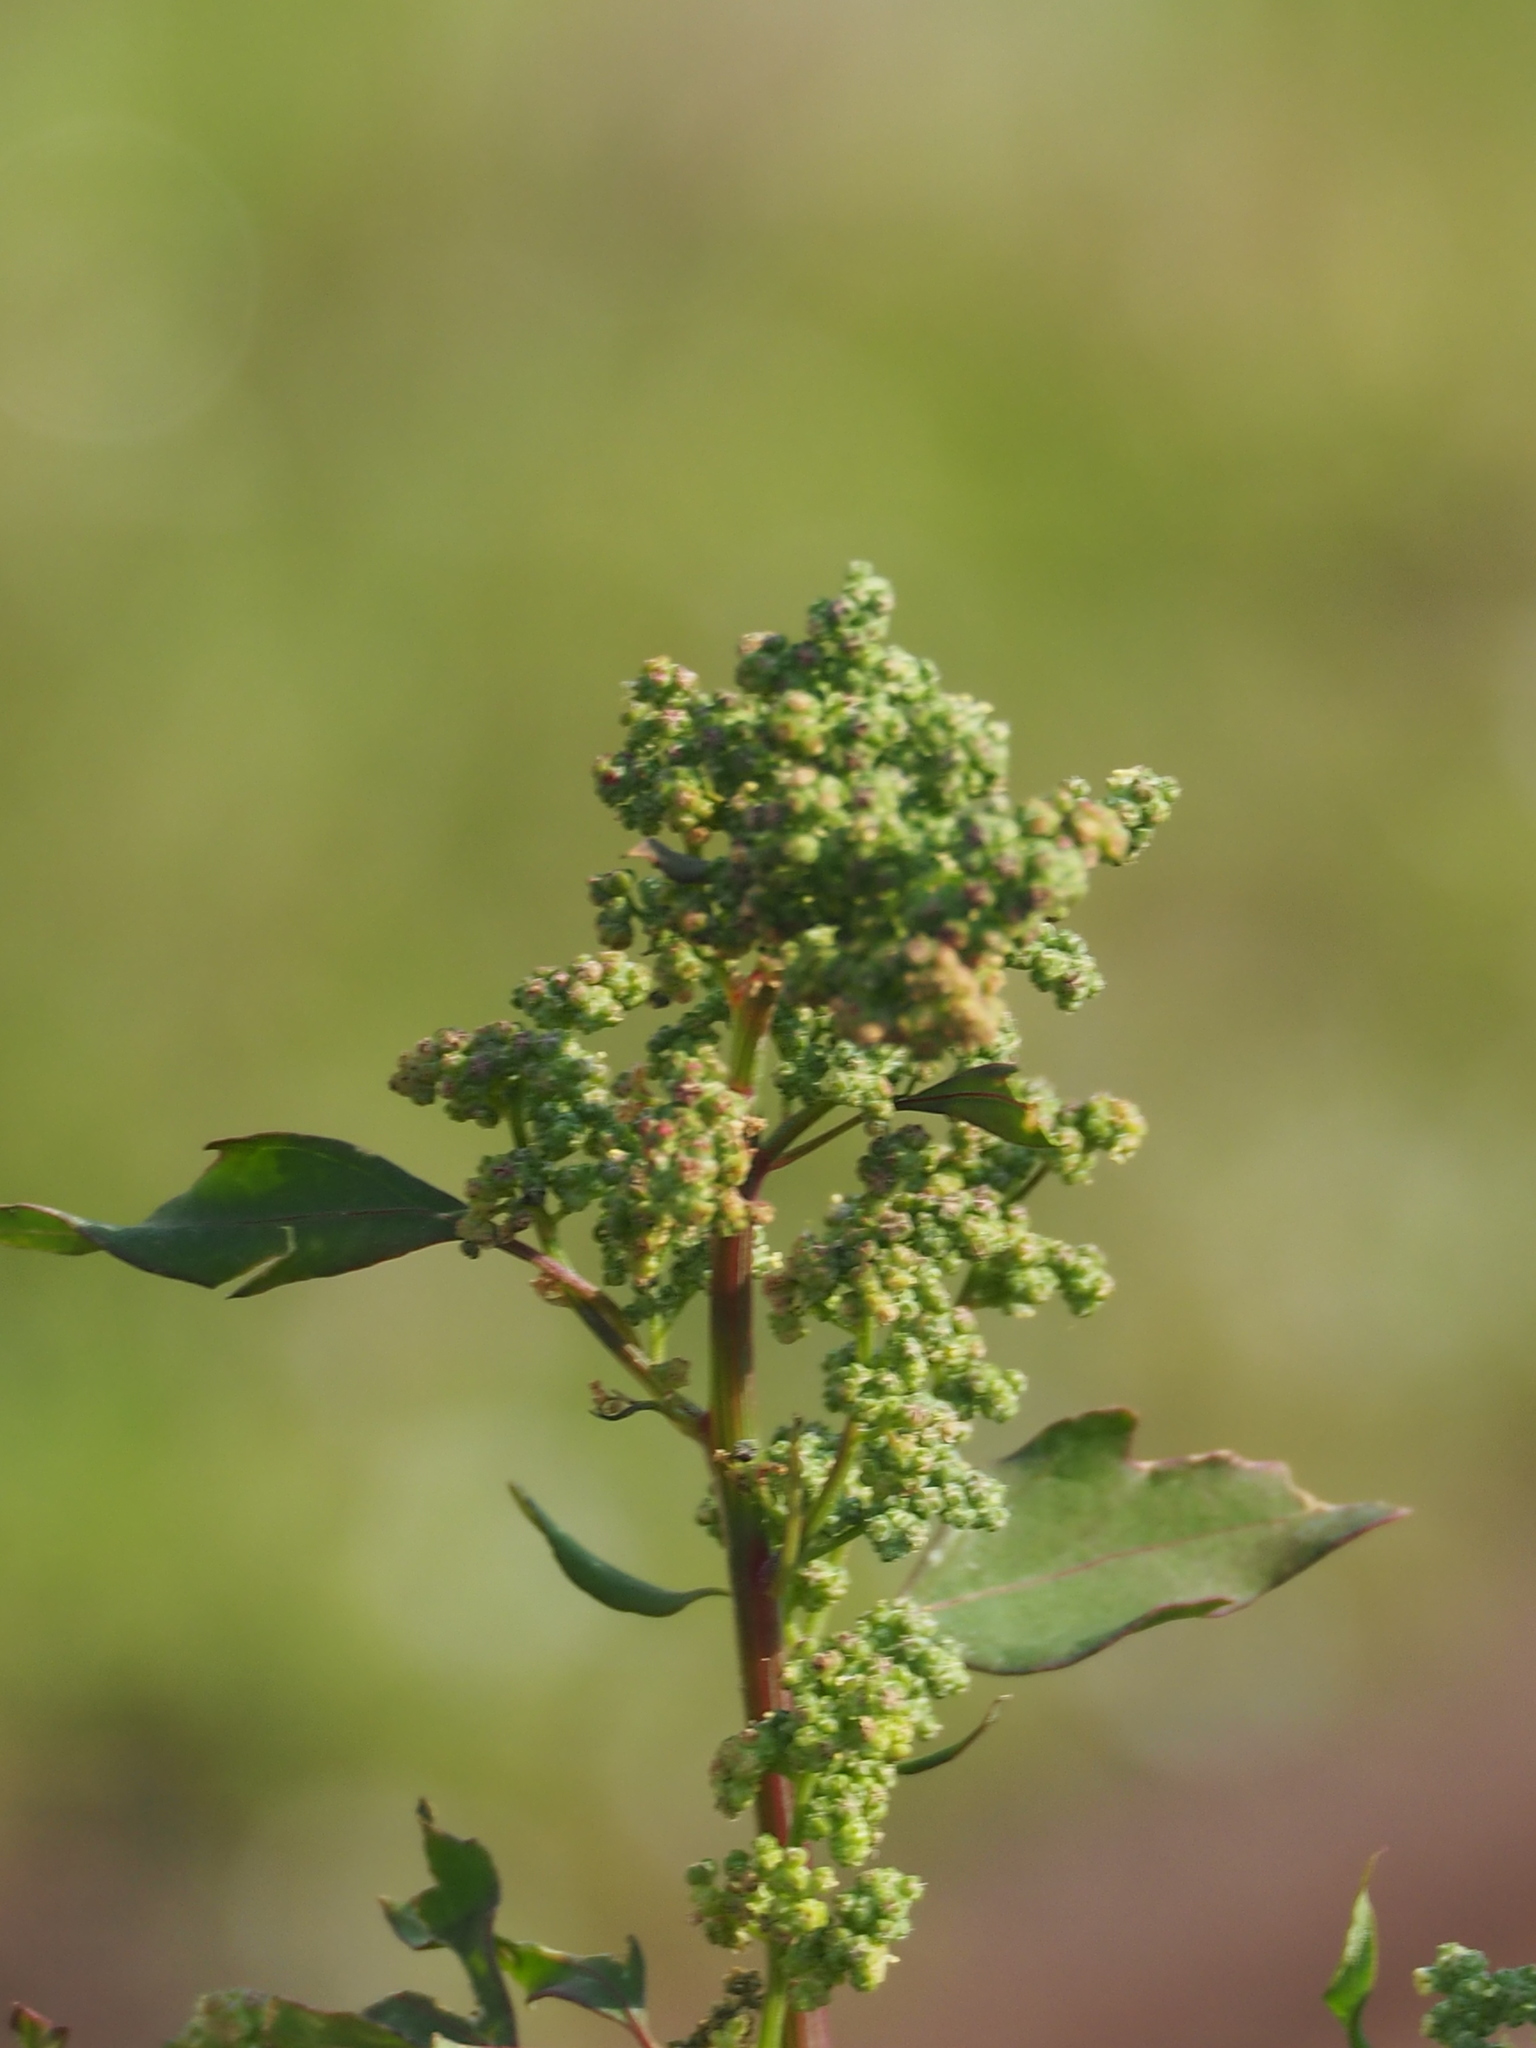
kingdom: Plantae
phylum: Tracheophyta
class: Magnoliopsida
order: Caryophyllales
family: Amaranthaceae
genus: Chenopodium
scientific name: Chenopodium ficifolium
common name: Fig-leaved goosefoot
